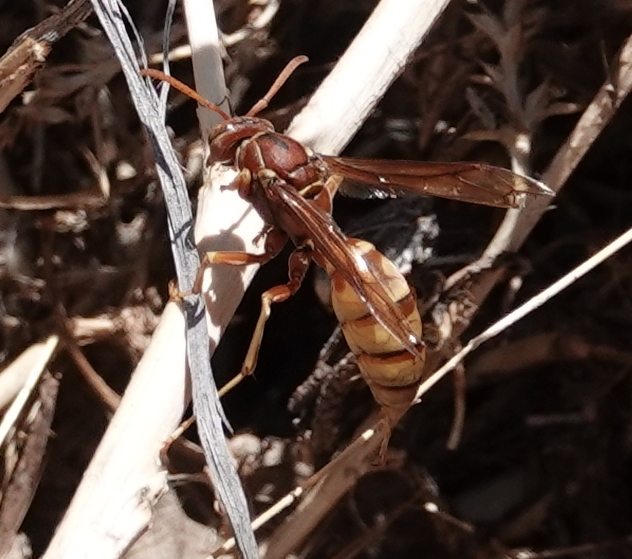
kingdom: Animalia
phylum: Arthropoda
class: Insecta
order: Hymenoptera
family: Eumenidae
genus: Polistes
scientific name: Polistes aurifer
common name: Paper wasp
